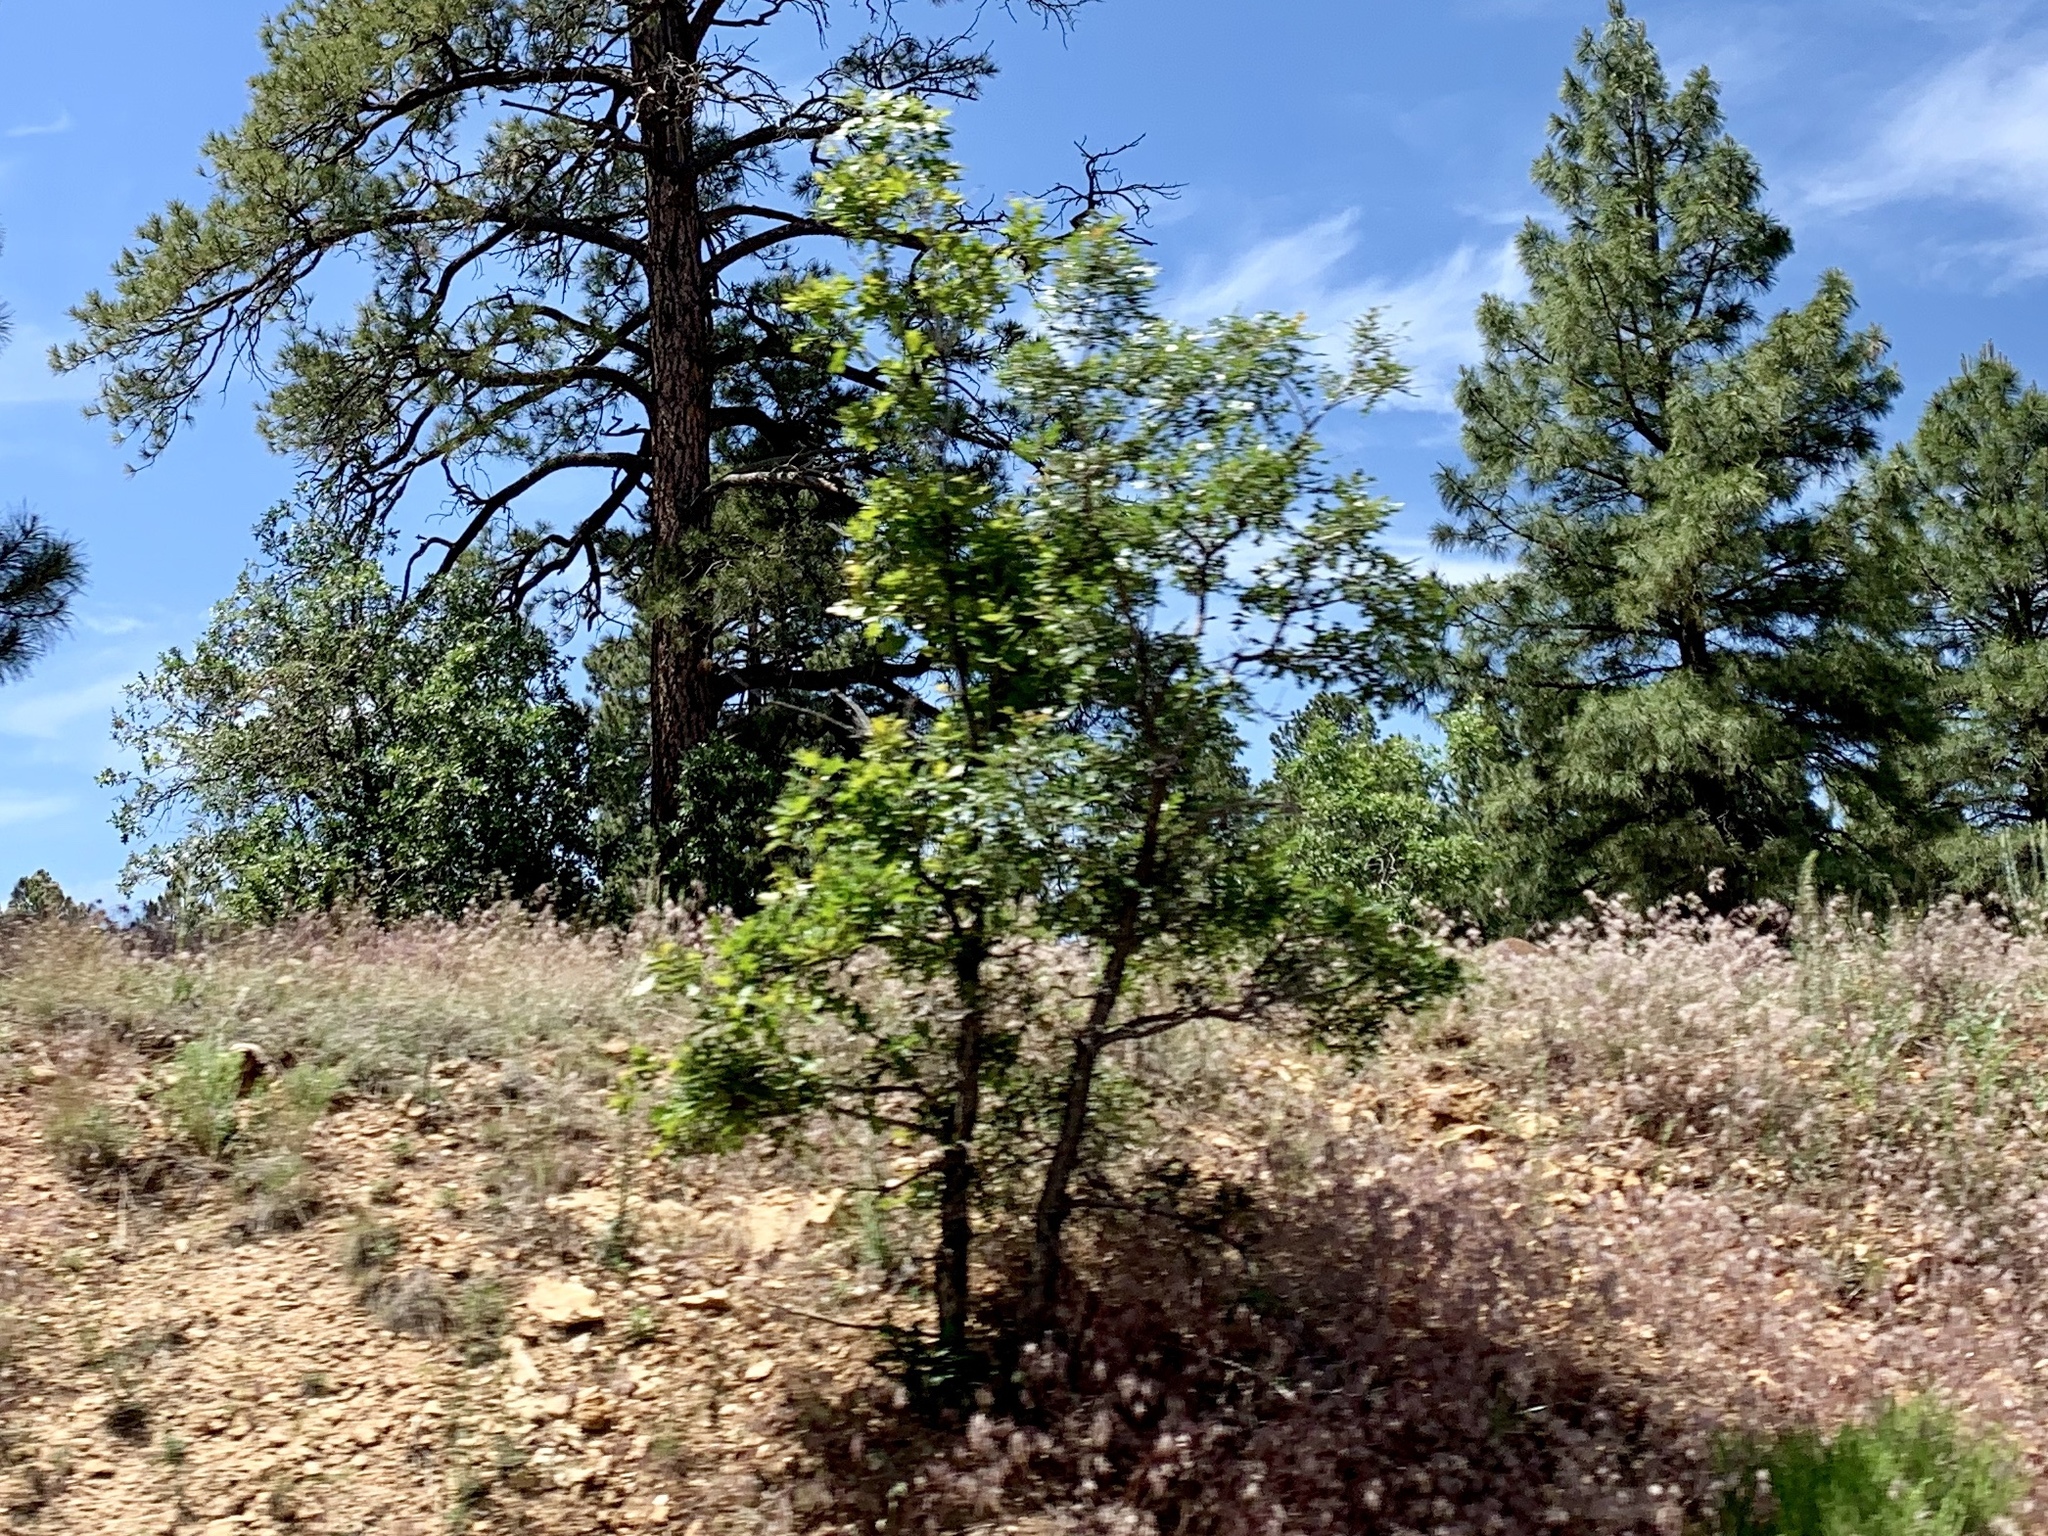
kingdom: Plantae
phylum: Tracheophyta
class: Magnoliopsida
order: Fagales
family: Fagaceae
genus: Quercus
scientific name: Quercus gambelii
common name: Gambel oak
